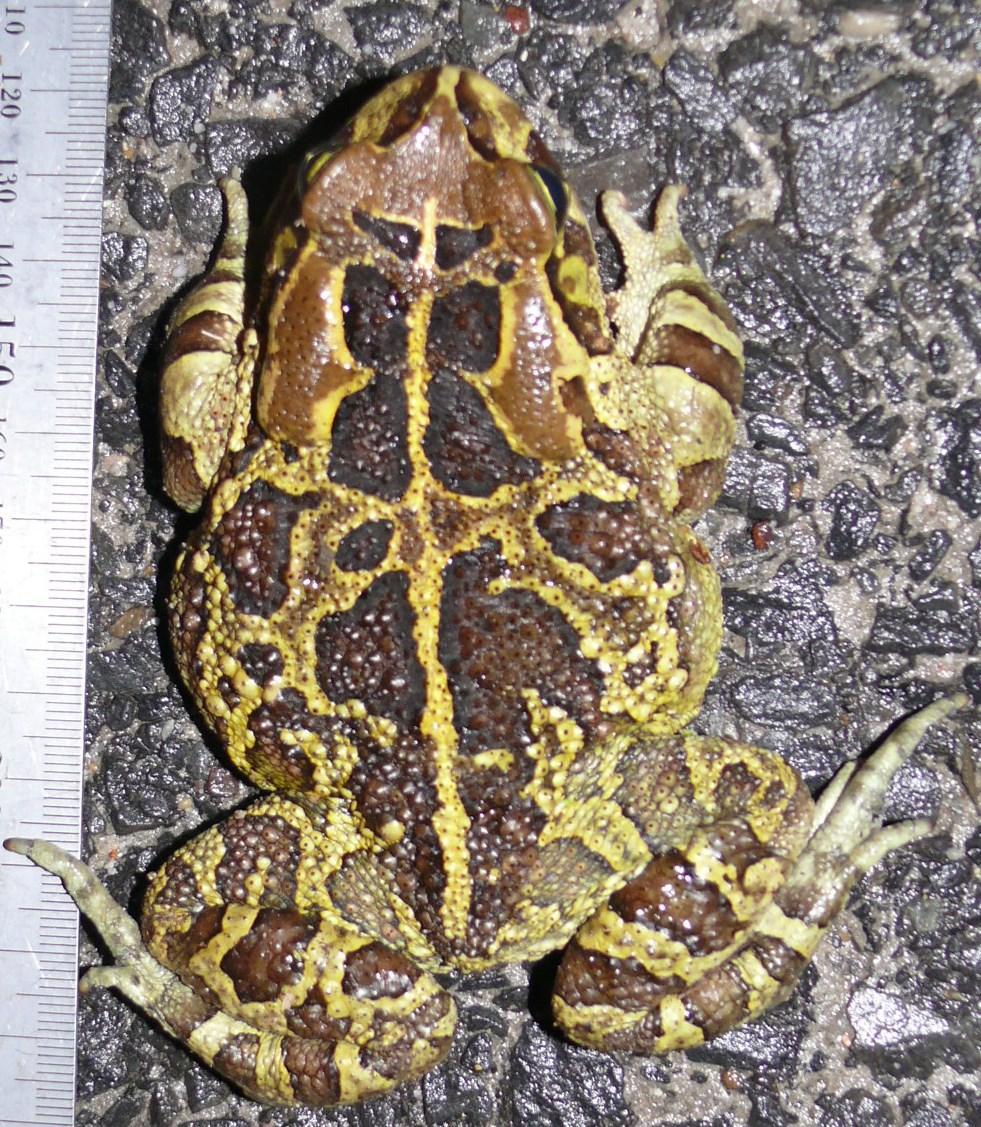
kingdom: Animalia
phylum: Chordata
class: Amphibia
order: Anura
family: Bufonidae
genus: Sclerophrys
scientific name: Sclerophrys pantherina
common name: Panther toad
